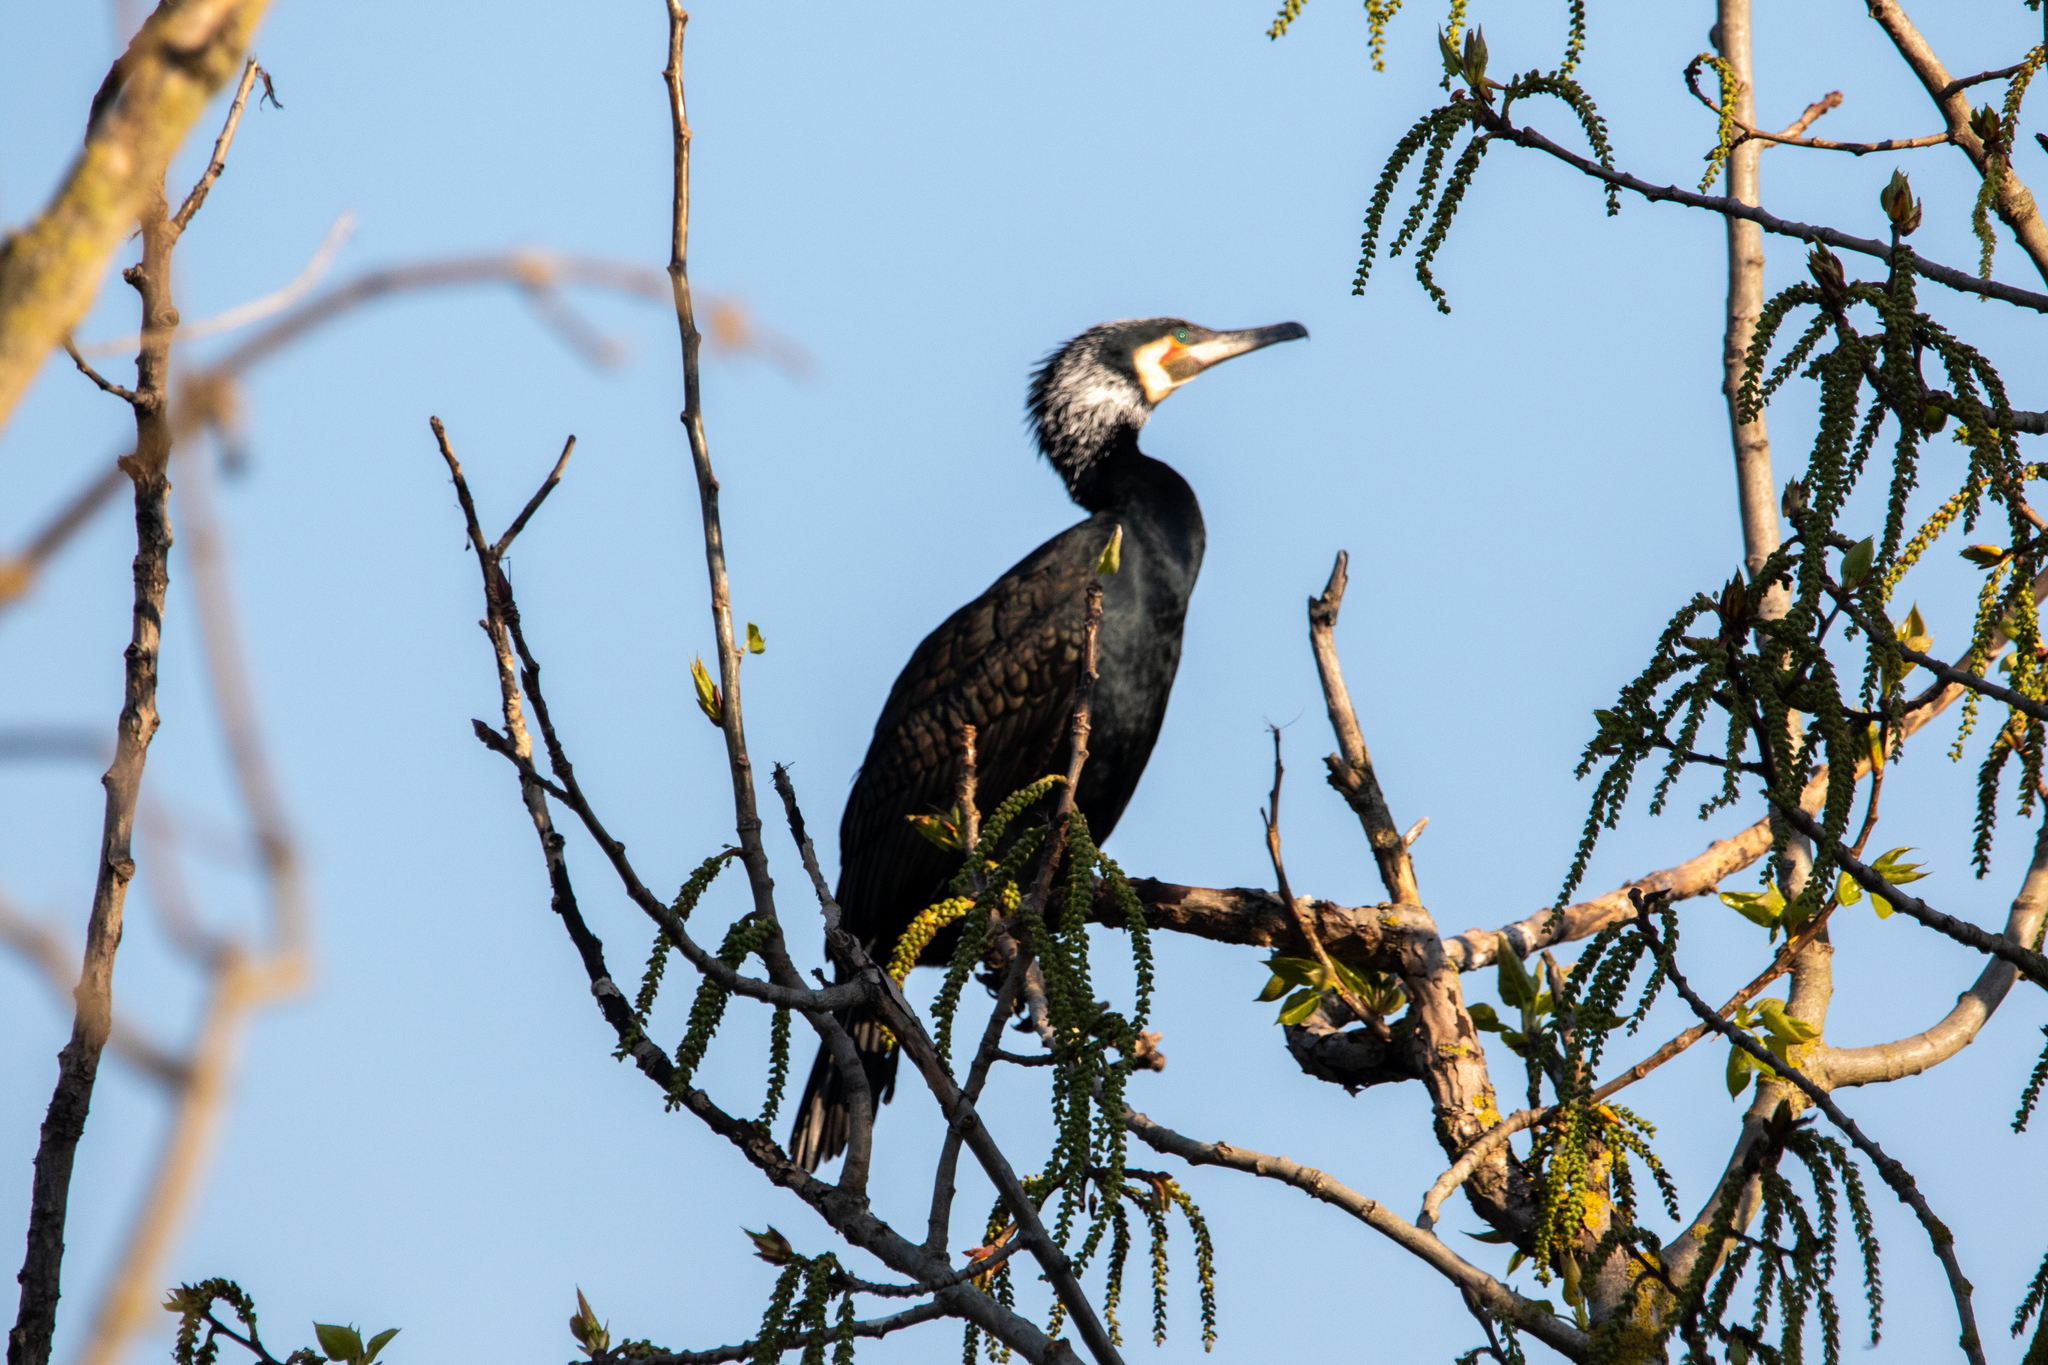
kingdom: Animalia
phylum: Chordata
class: Aves
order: Suliformes
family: Phalacrocoracidae
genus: Phalacrocorax
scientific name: Phalacrocorax carbo
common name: Great cormorant
